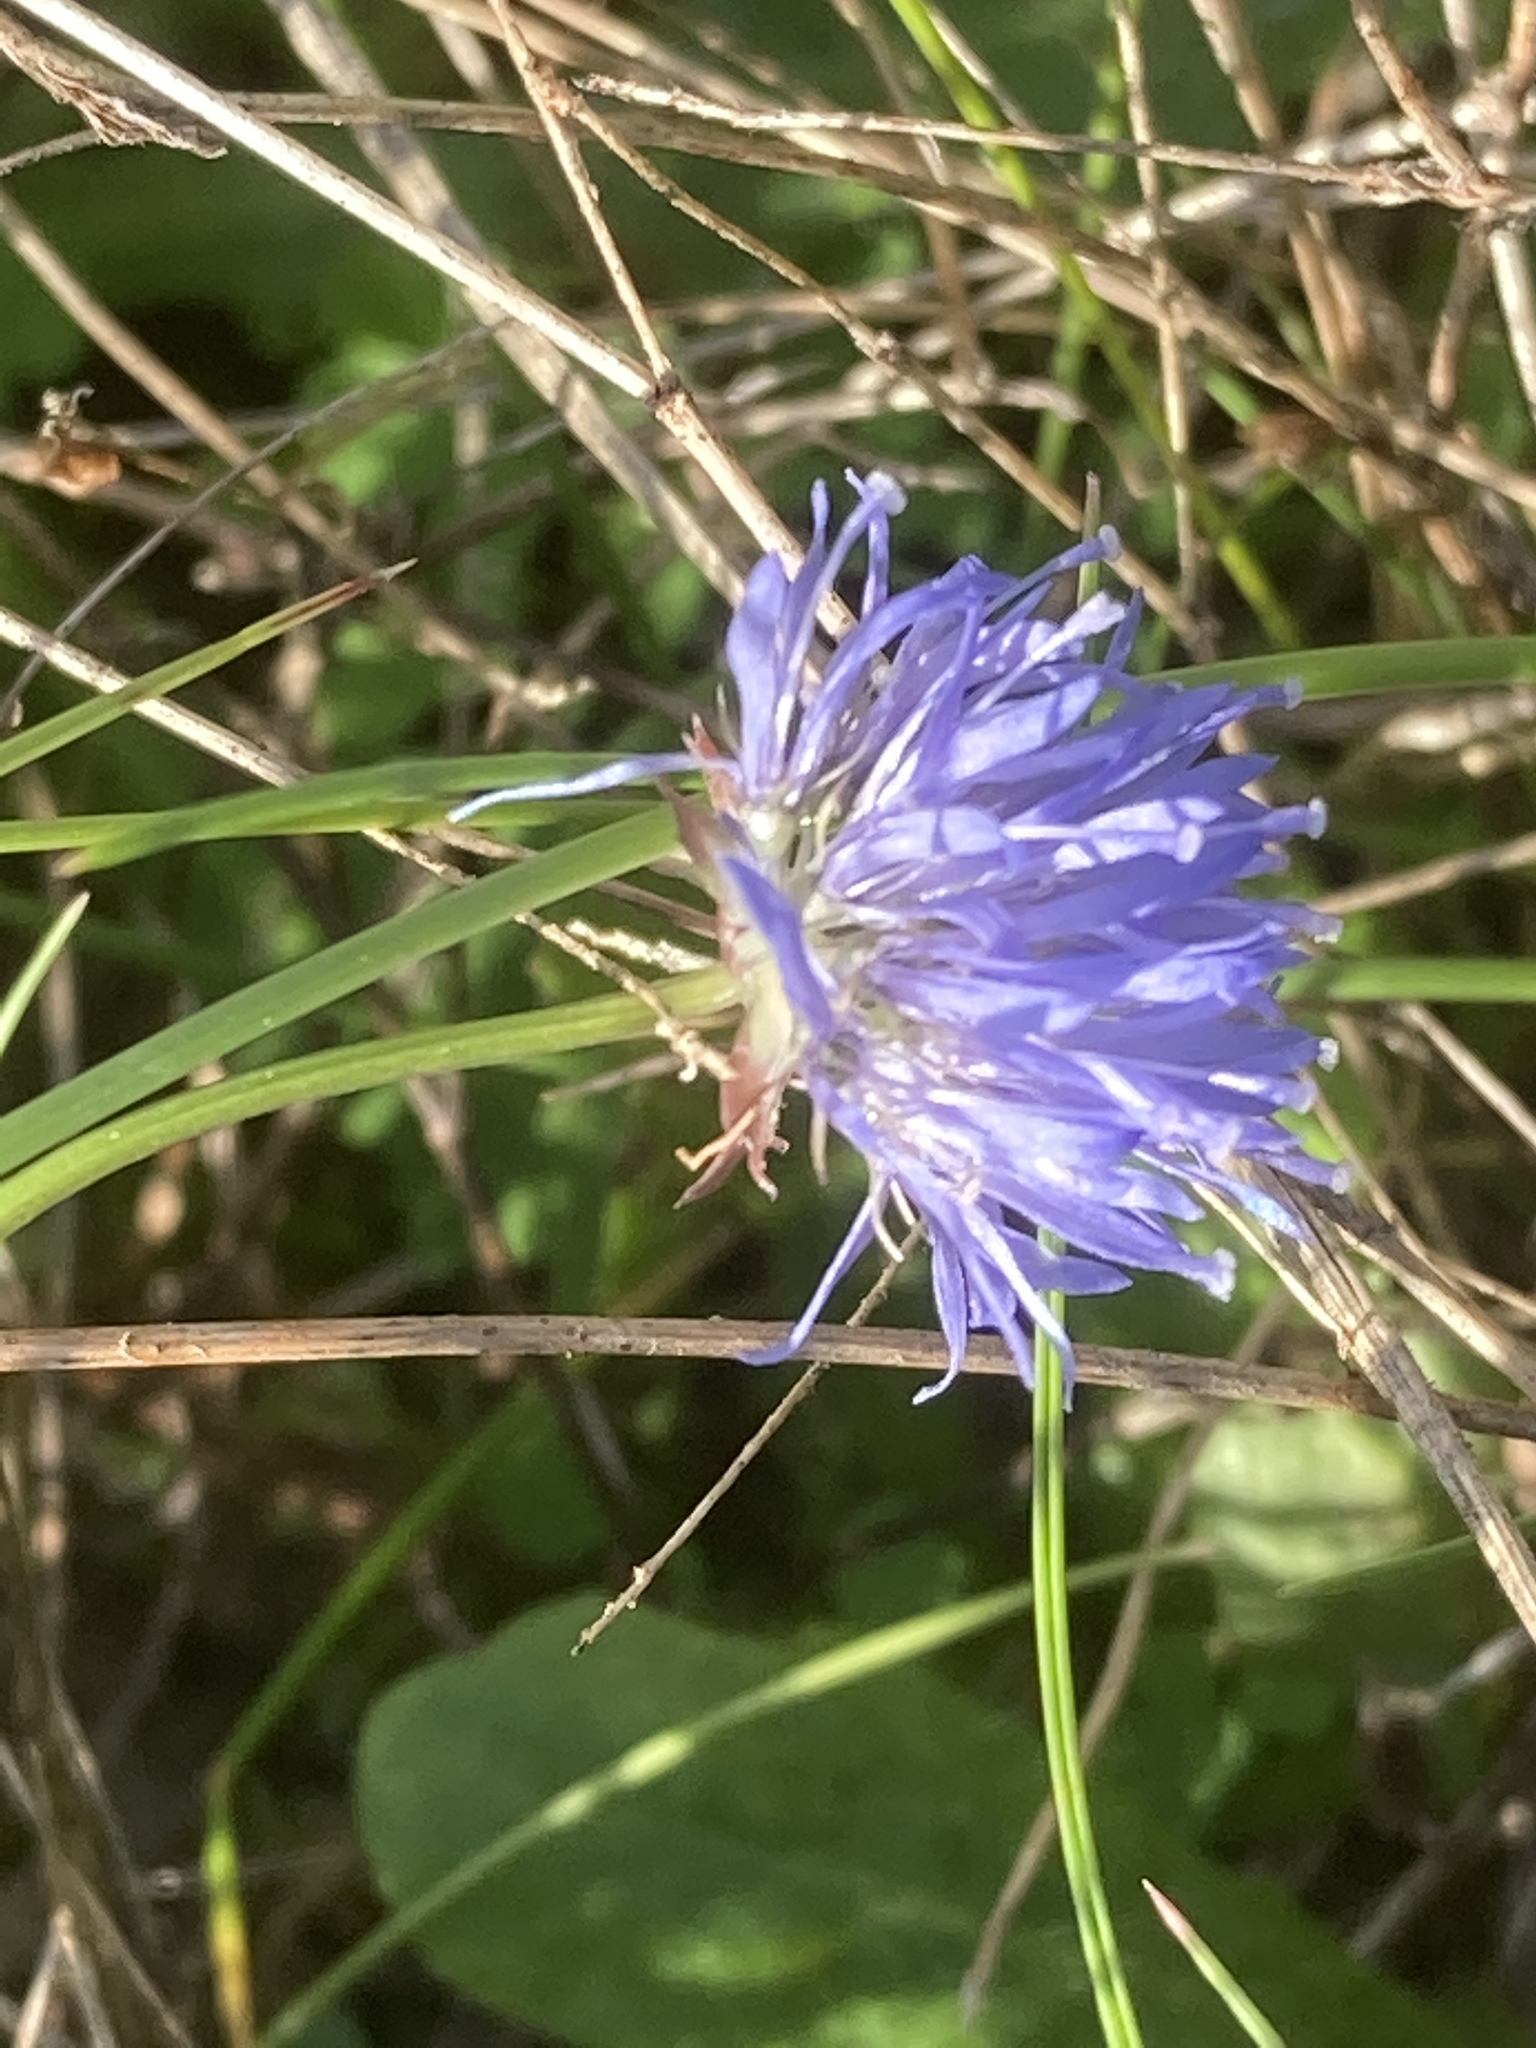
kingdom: Plantae
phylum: Tracheophyta
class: Magnoliopsida
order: Asterales
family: Campanulaceae
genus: Jasione
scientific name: Jasione montana
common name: Sheep's-bit
